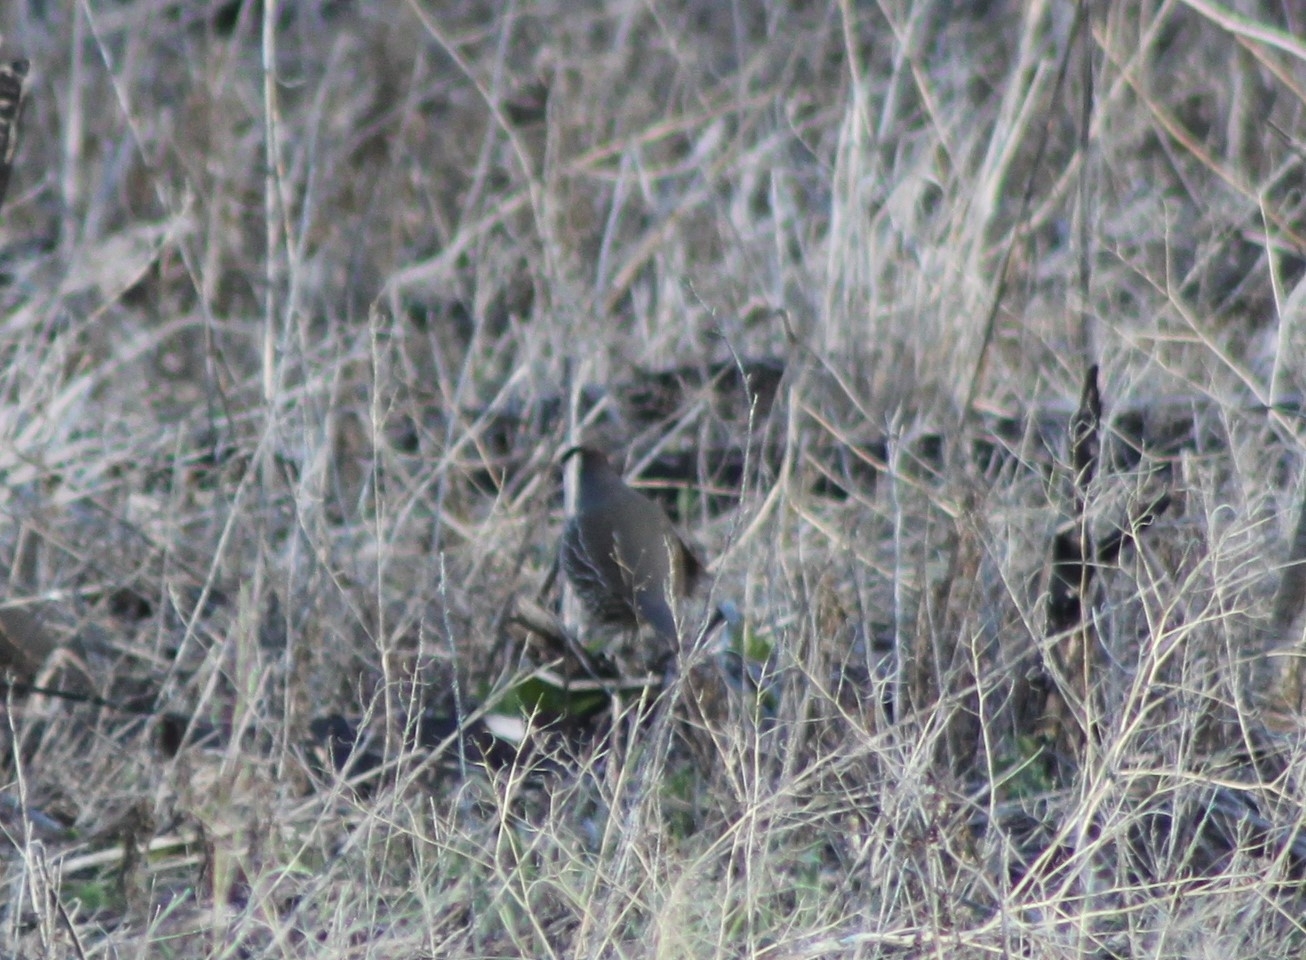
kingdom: Animalia
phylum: Chordata
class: Aves
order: Galliformes
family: Odontophoridae
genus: Callipepla
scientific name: Callipepla californica
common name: California quail
